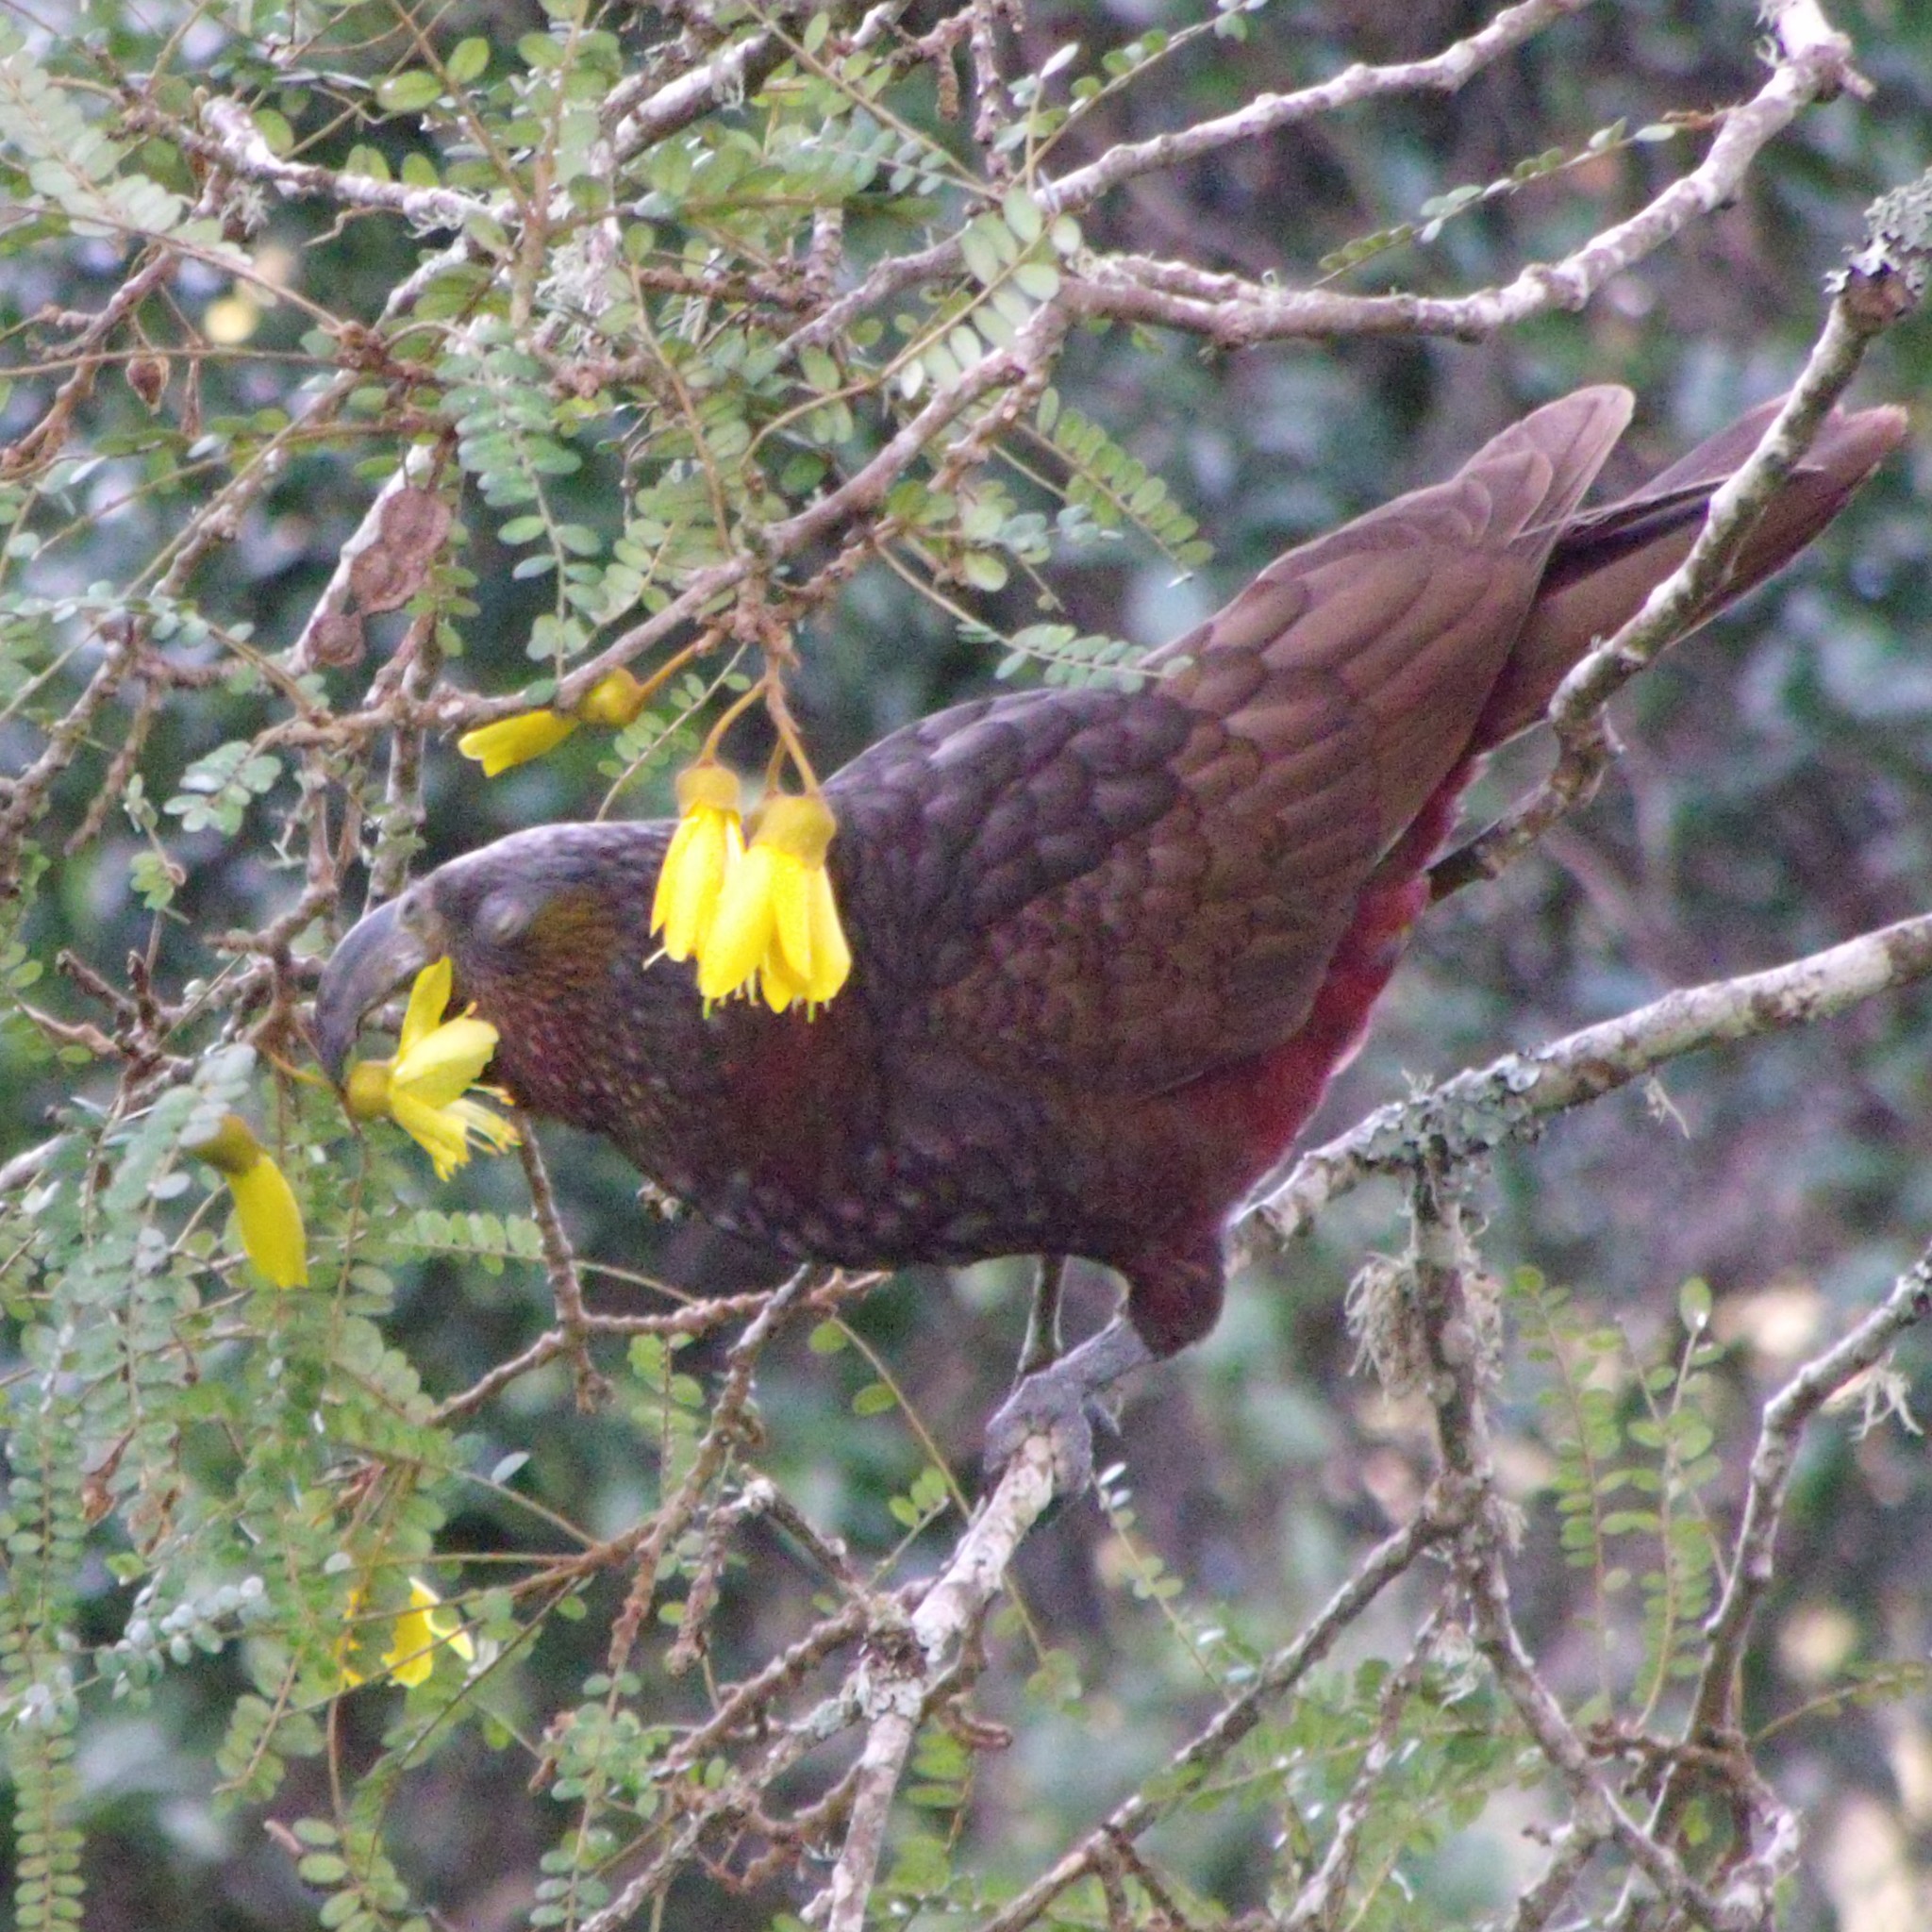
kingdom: Animalia
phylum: Chordata
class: Aves
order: Psittaciformes
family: Psittacidae
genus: Nestor
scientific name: Nestor meridionalis
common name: New zealand kaka
